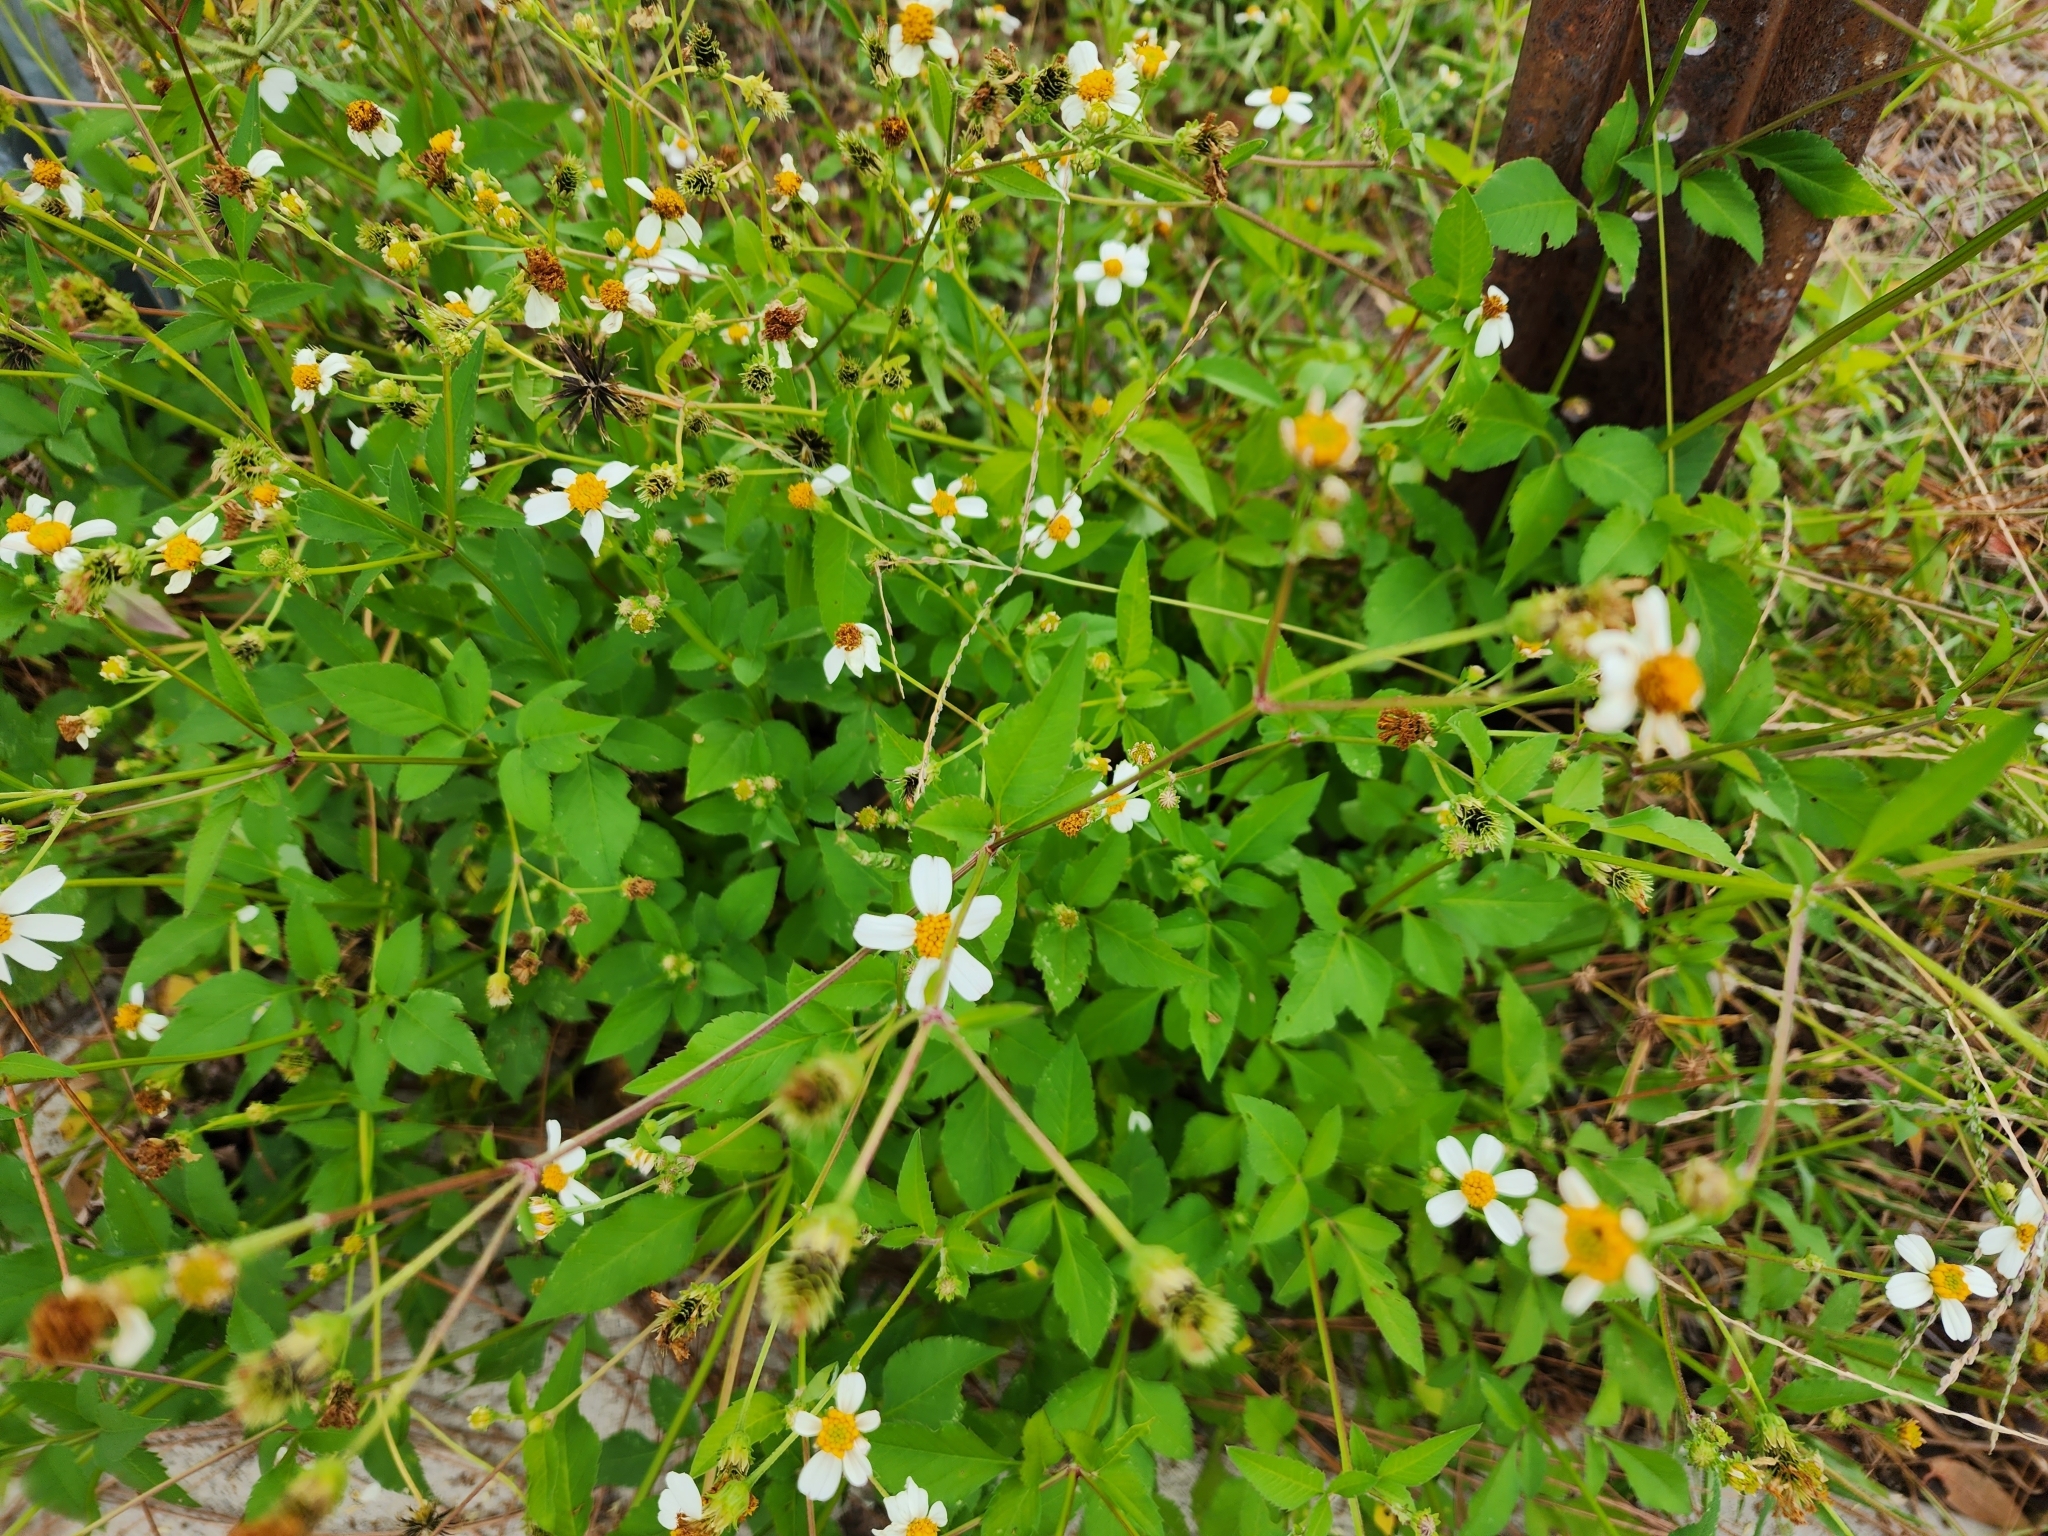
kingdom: Plantae
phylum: Tracheophyta
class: Magnoliopsida
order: Asterales
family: Asteraceae
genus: Bidens
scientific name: Bidens alba
